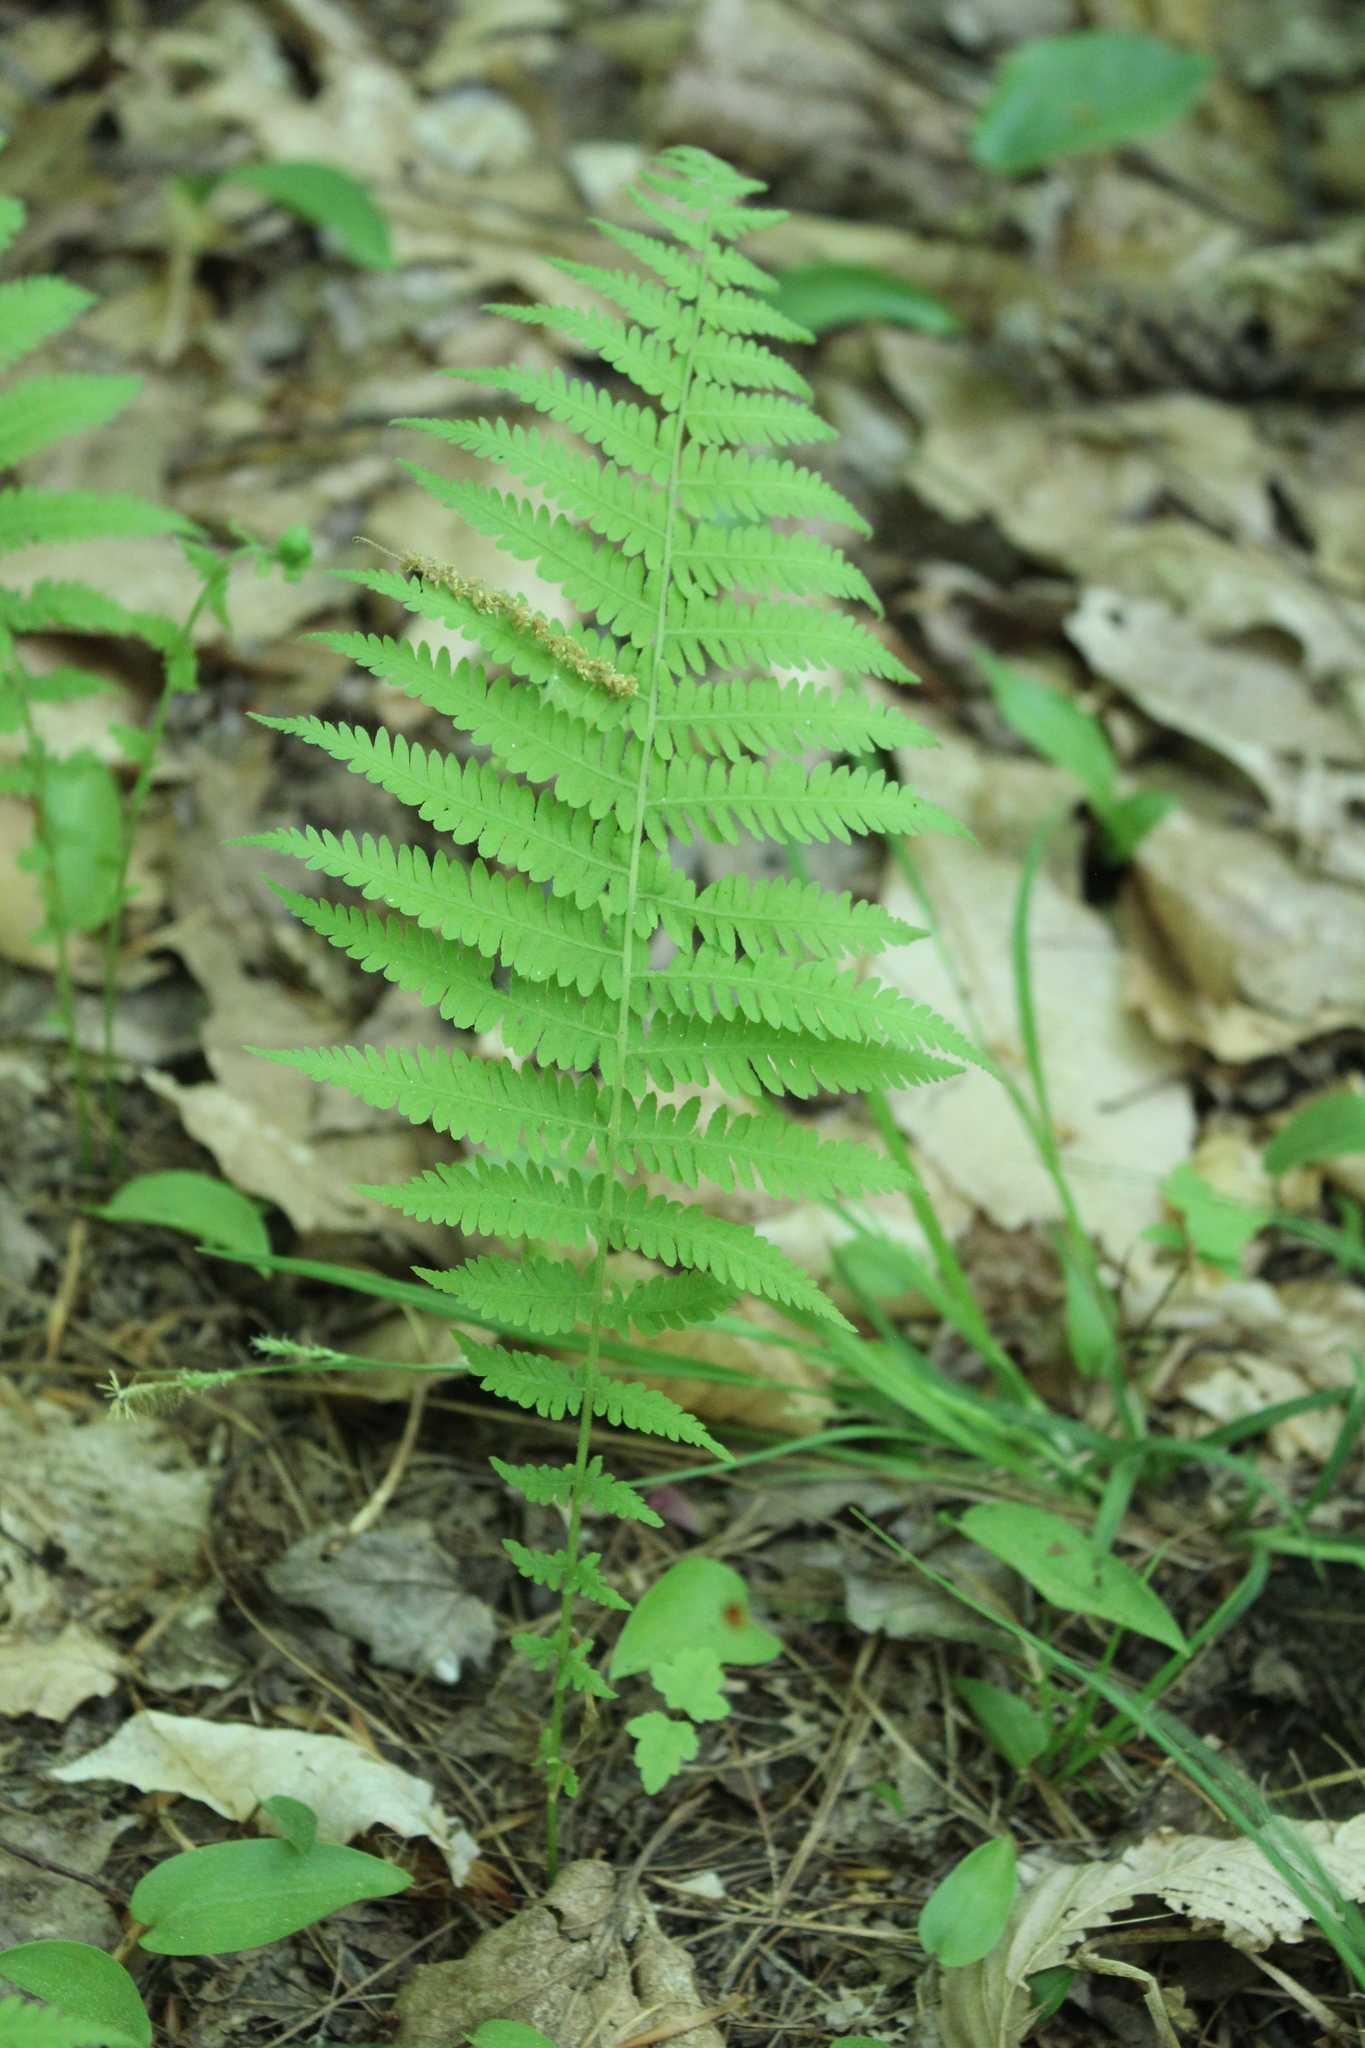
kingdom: Plantae
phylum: Tracheophyta
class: Polypodiopsida
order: Polypodiales
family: Thelypteridaceae
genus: Amauropelta
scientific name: Amauropelta noveboracensis
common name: New york fern
